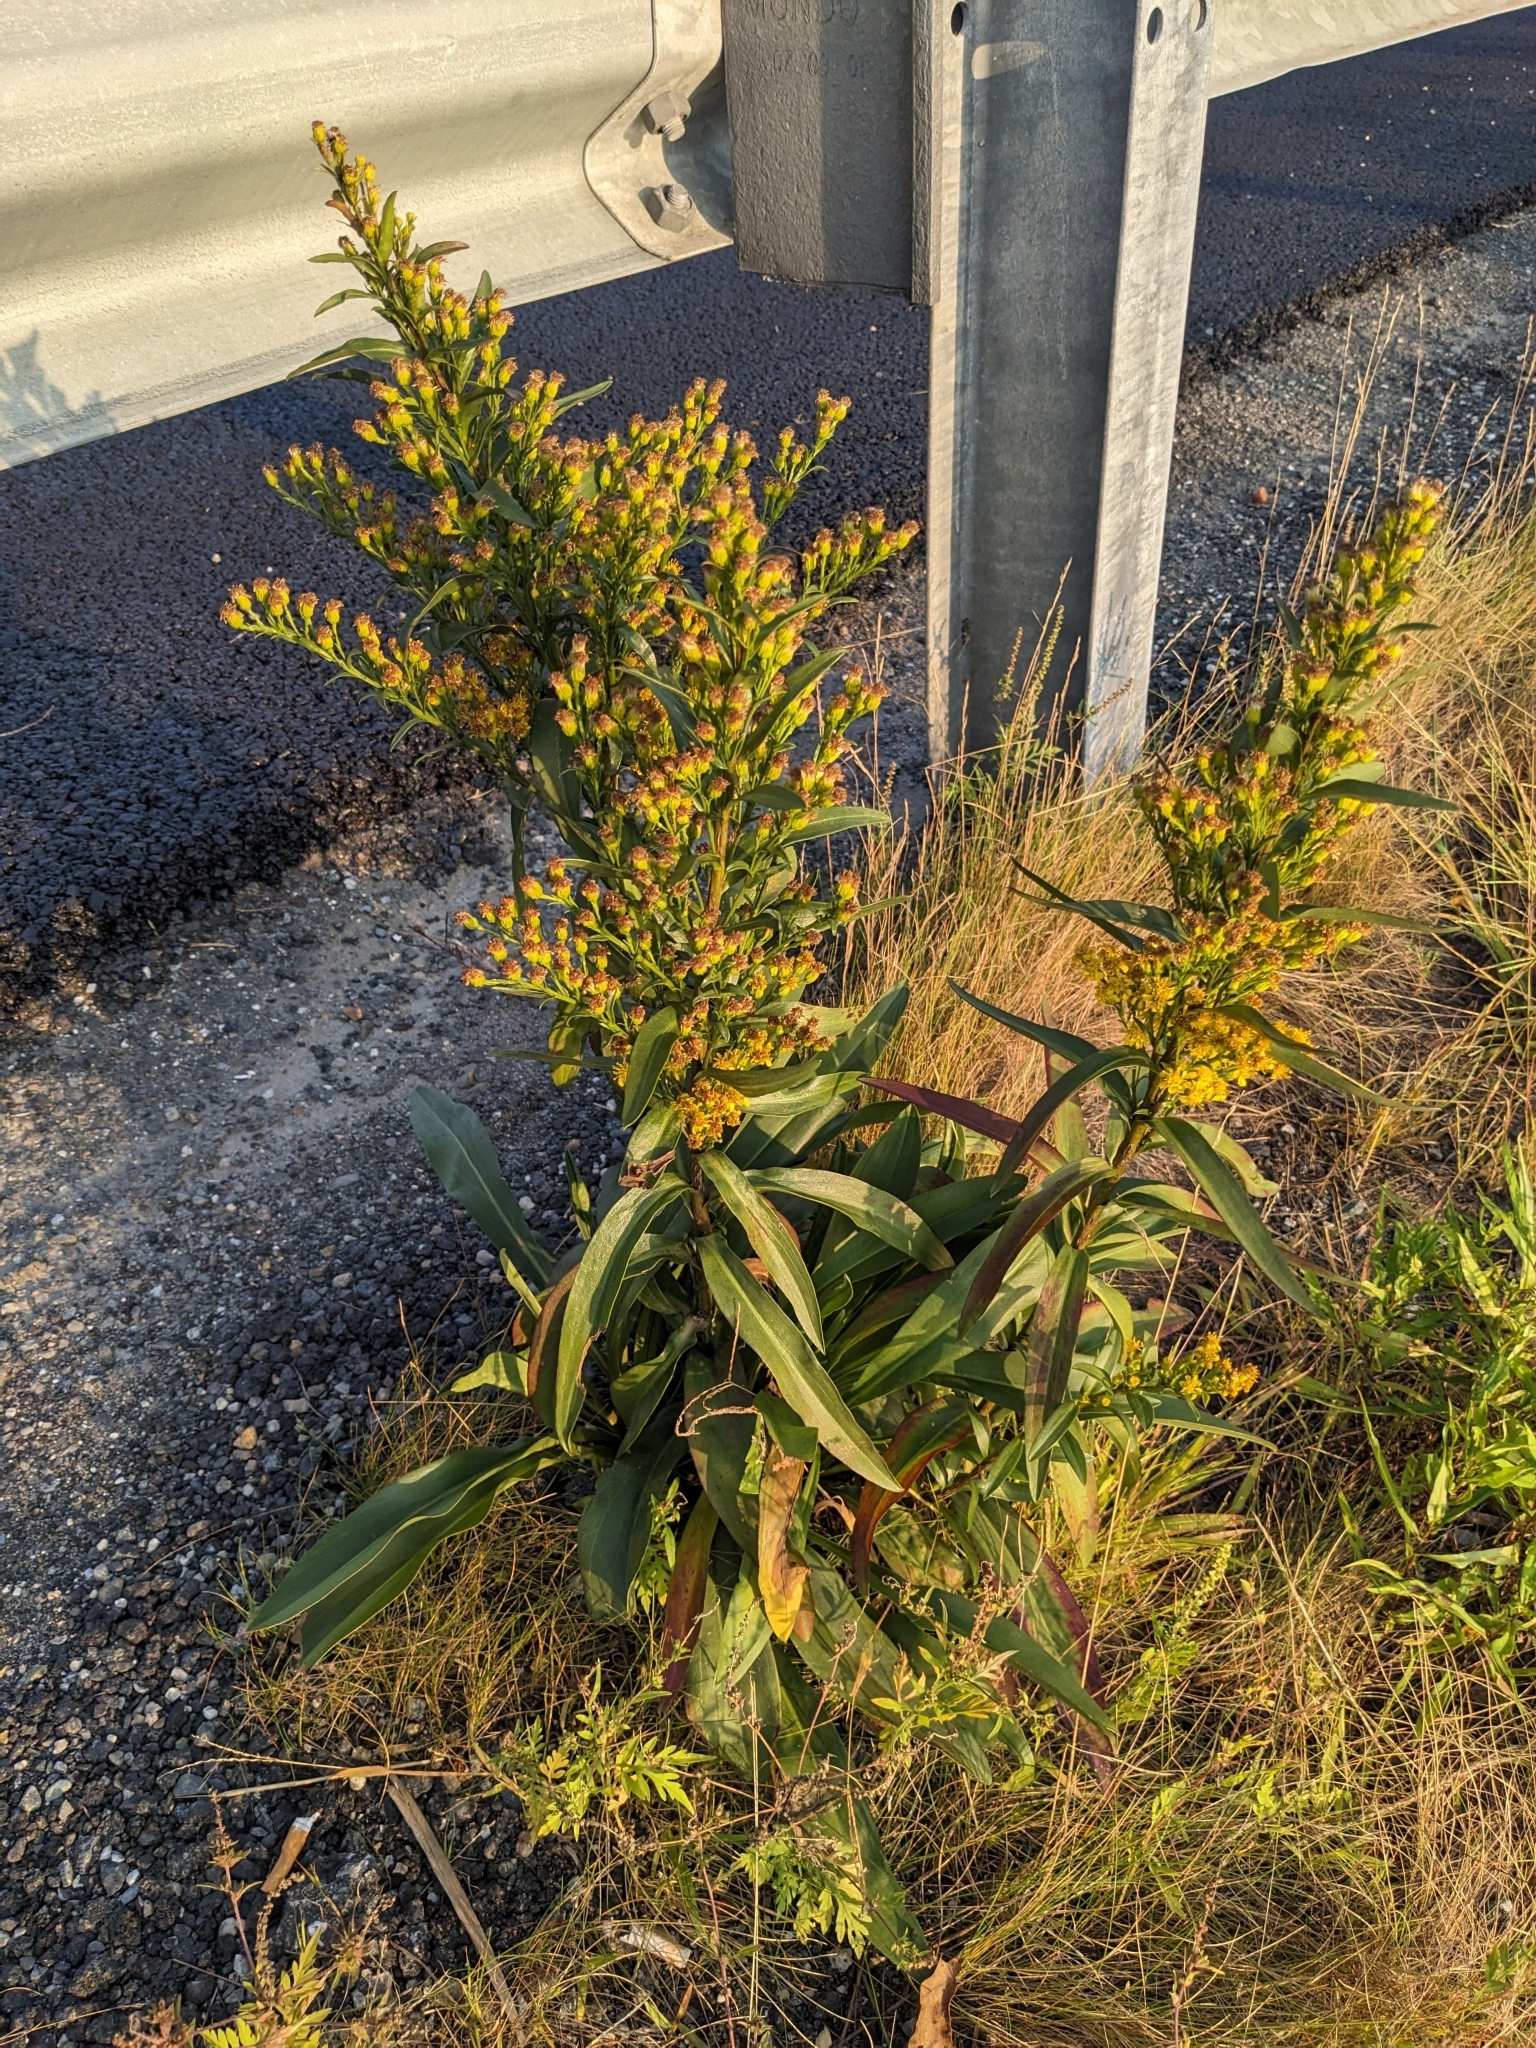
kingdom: Plantae
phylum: Tracheophyta
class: Magnoliopsida
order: Asterales
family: Asteraceae
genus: Solidago
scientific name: Solidago sempervirens
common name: Salt-marsh goldenrod
